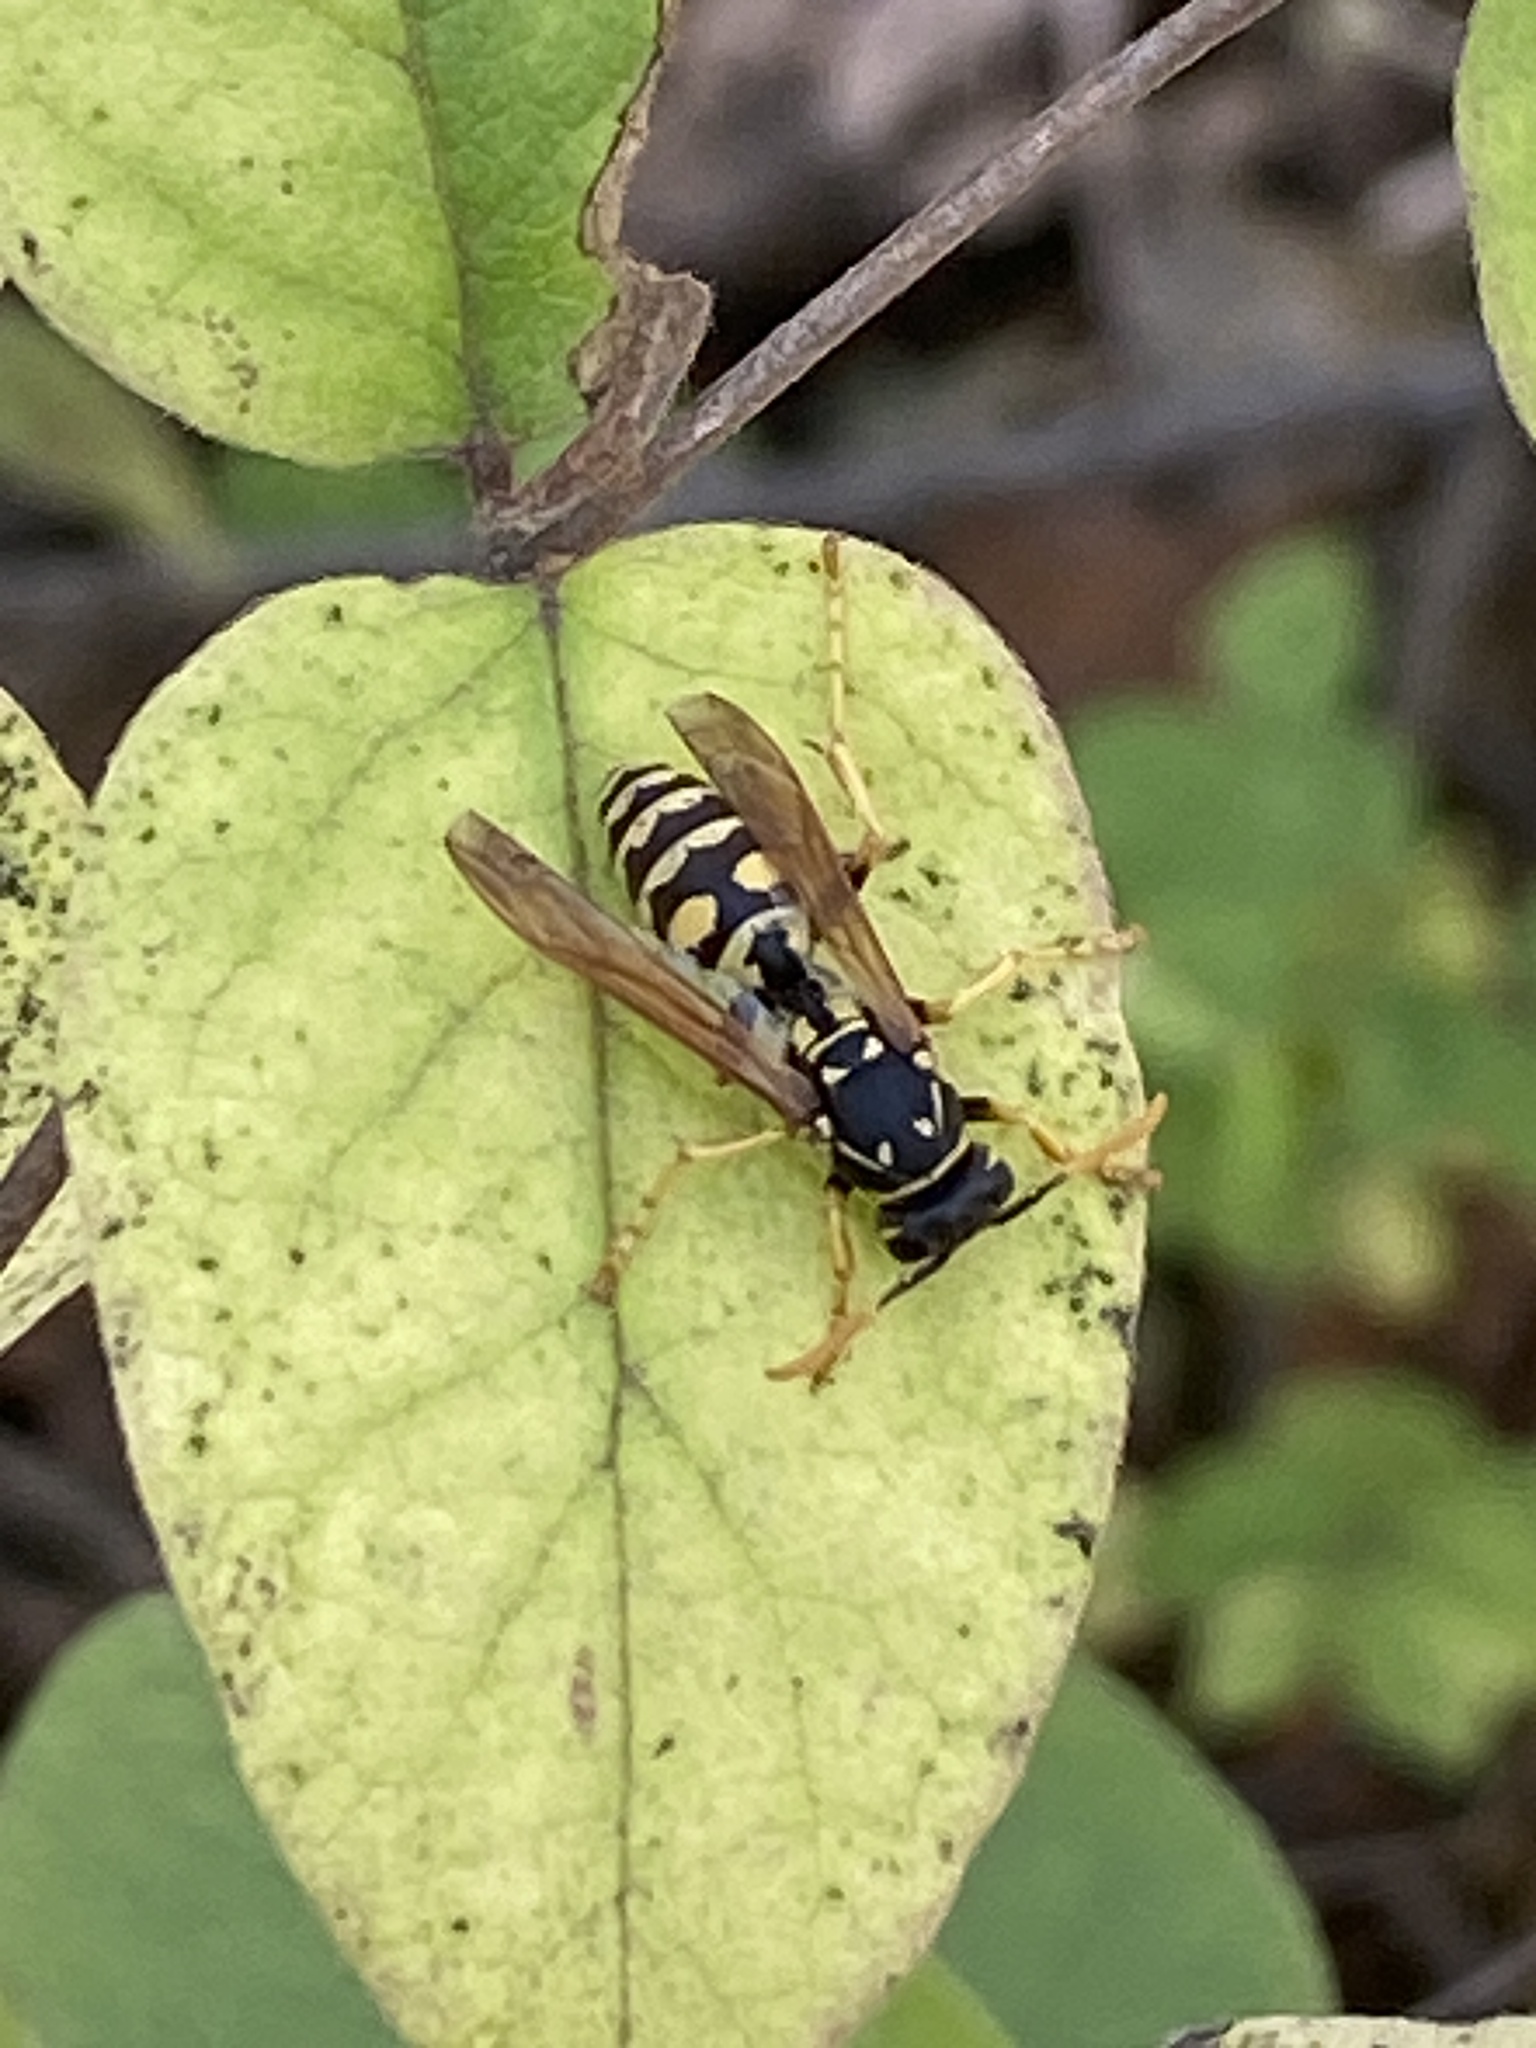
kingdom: Animalia
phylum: Arthropoda
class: Insecta
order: Hymenoptera
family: Eumenidae
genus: Polistes
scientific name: Polistes dominula
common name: Paper wasp
